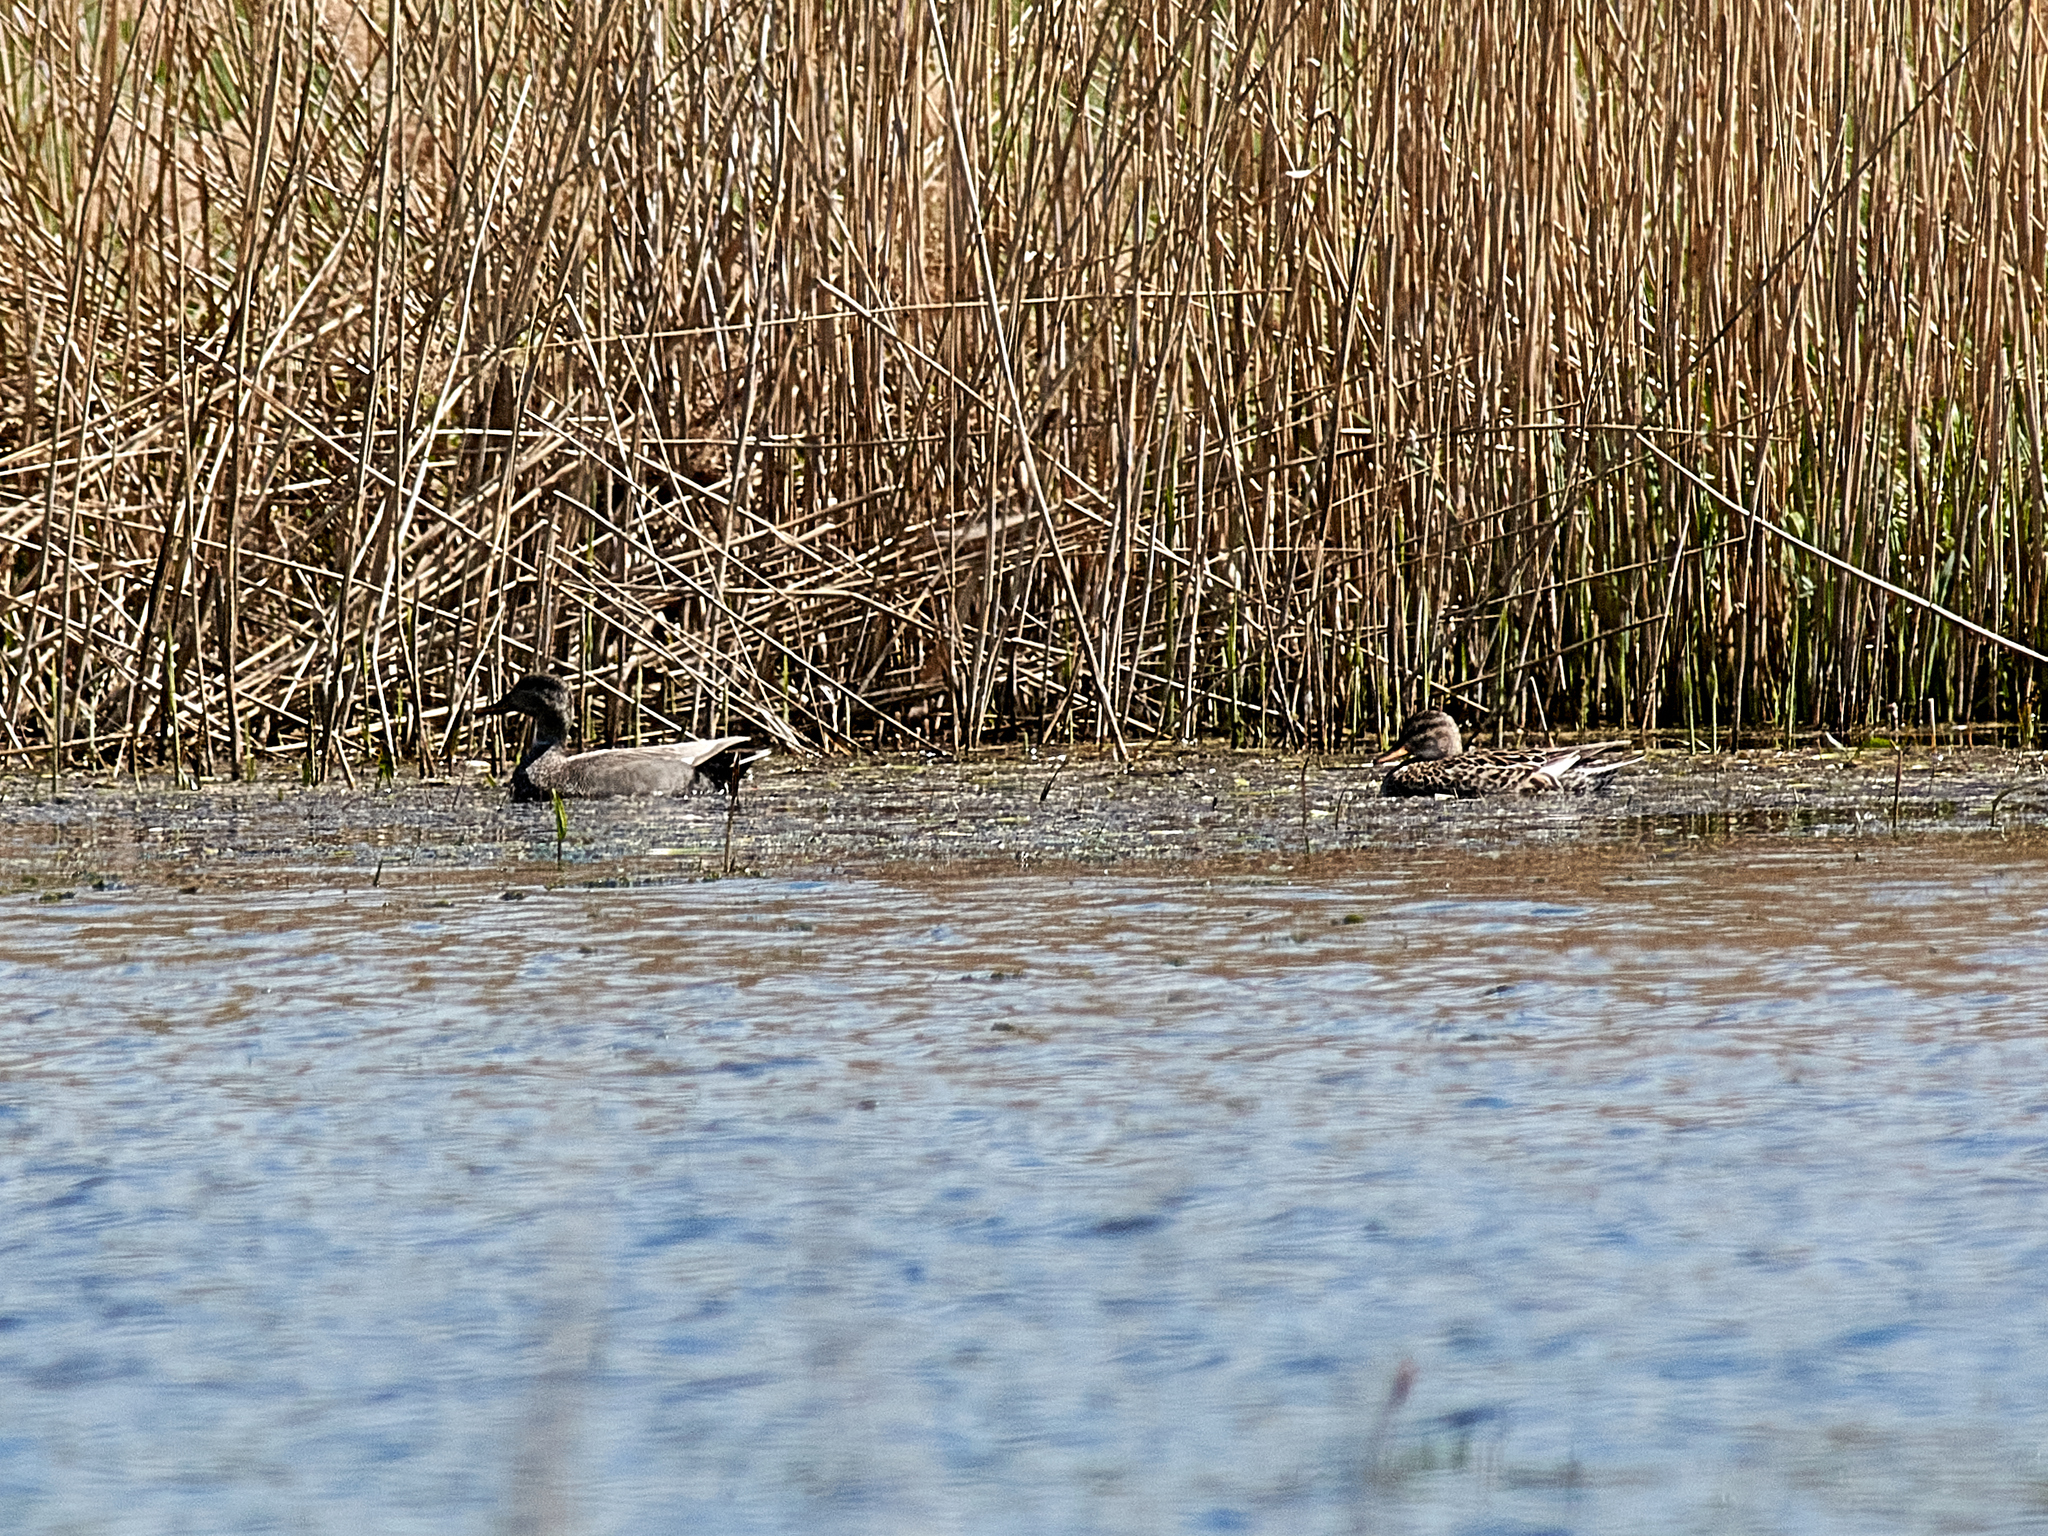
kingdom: Animalia
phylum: Chordata
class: Aves
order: Anseriformes
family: Anatidae
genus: Mareca
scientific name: Mareca strepera
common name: Gadwall
